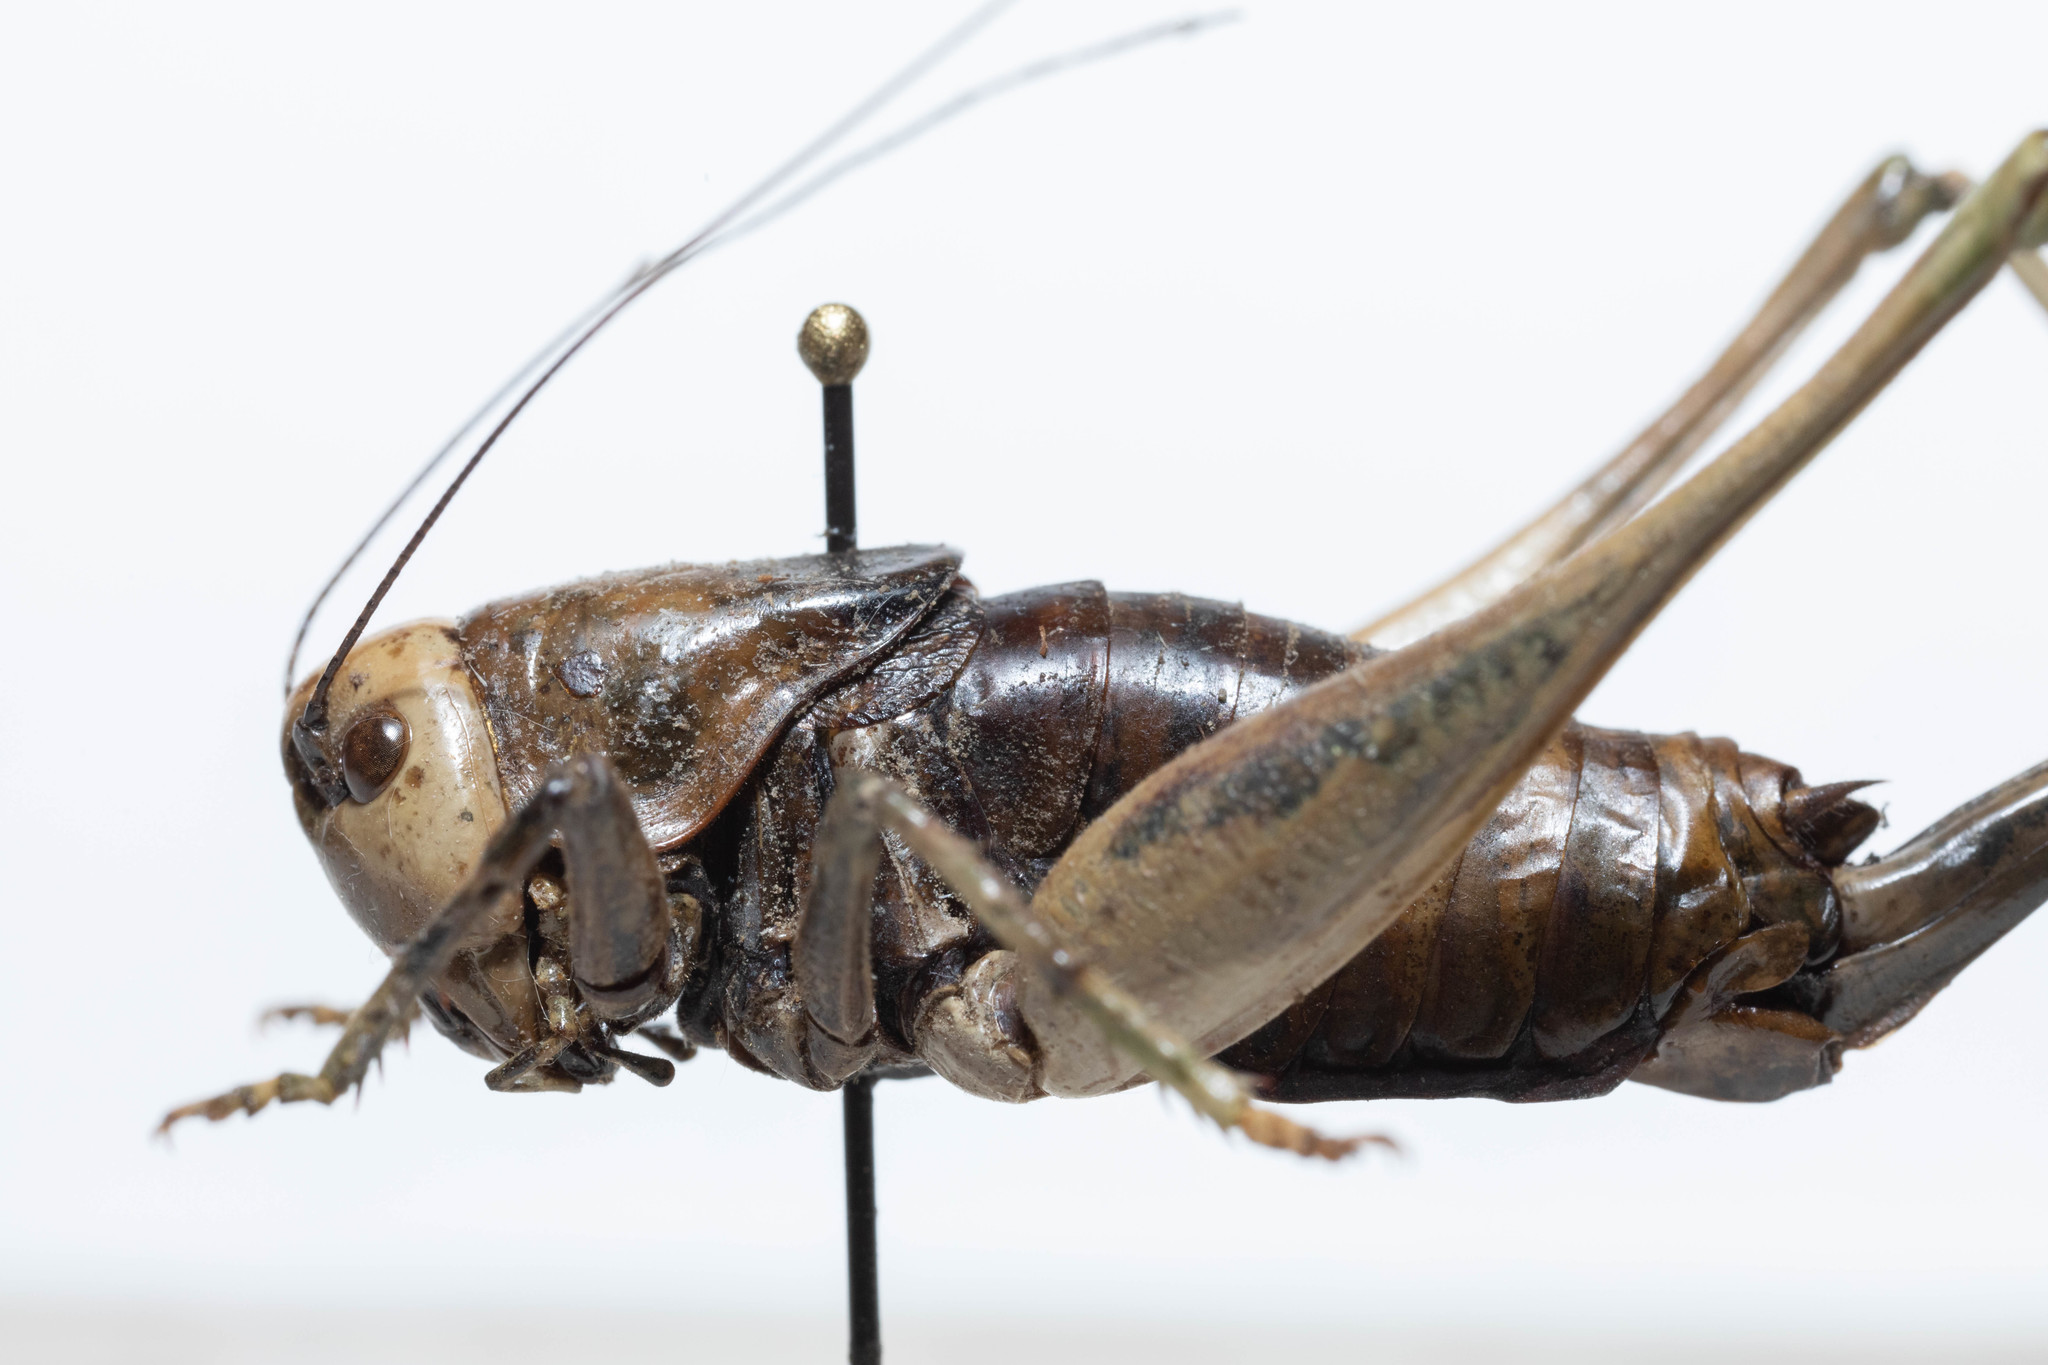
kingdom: Animalia
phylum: Arthropoda
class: Insecta
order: Orthoptera
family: Tettigoniidae
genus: Anabrus
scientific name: Anabrus longipes
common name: Long-legged anabrus
